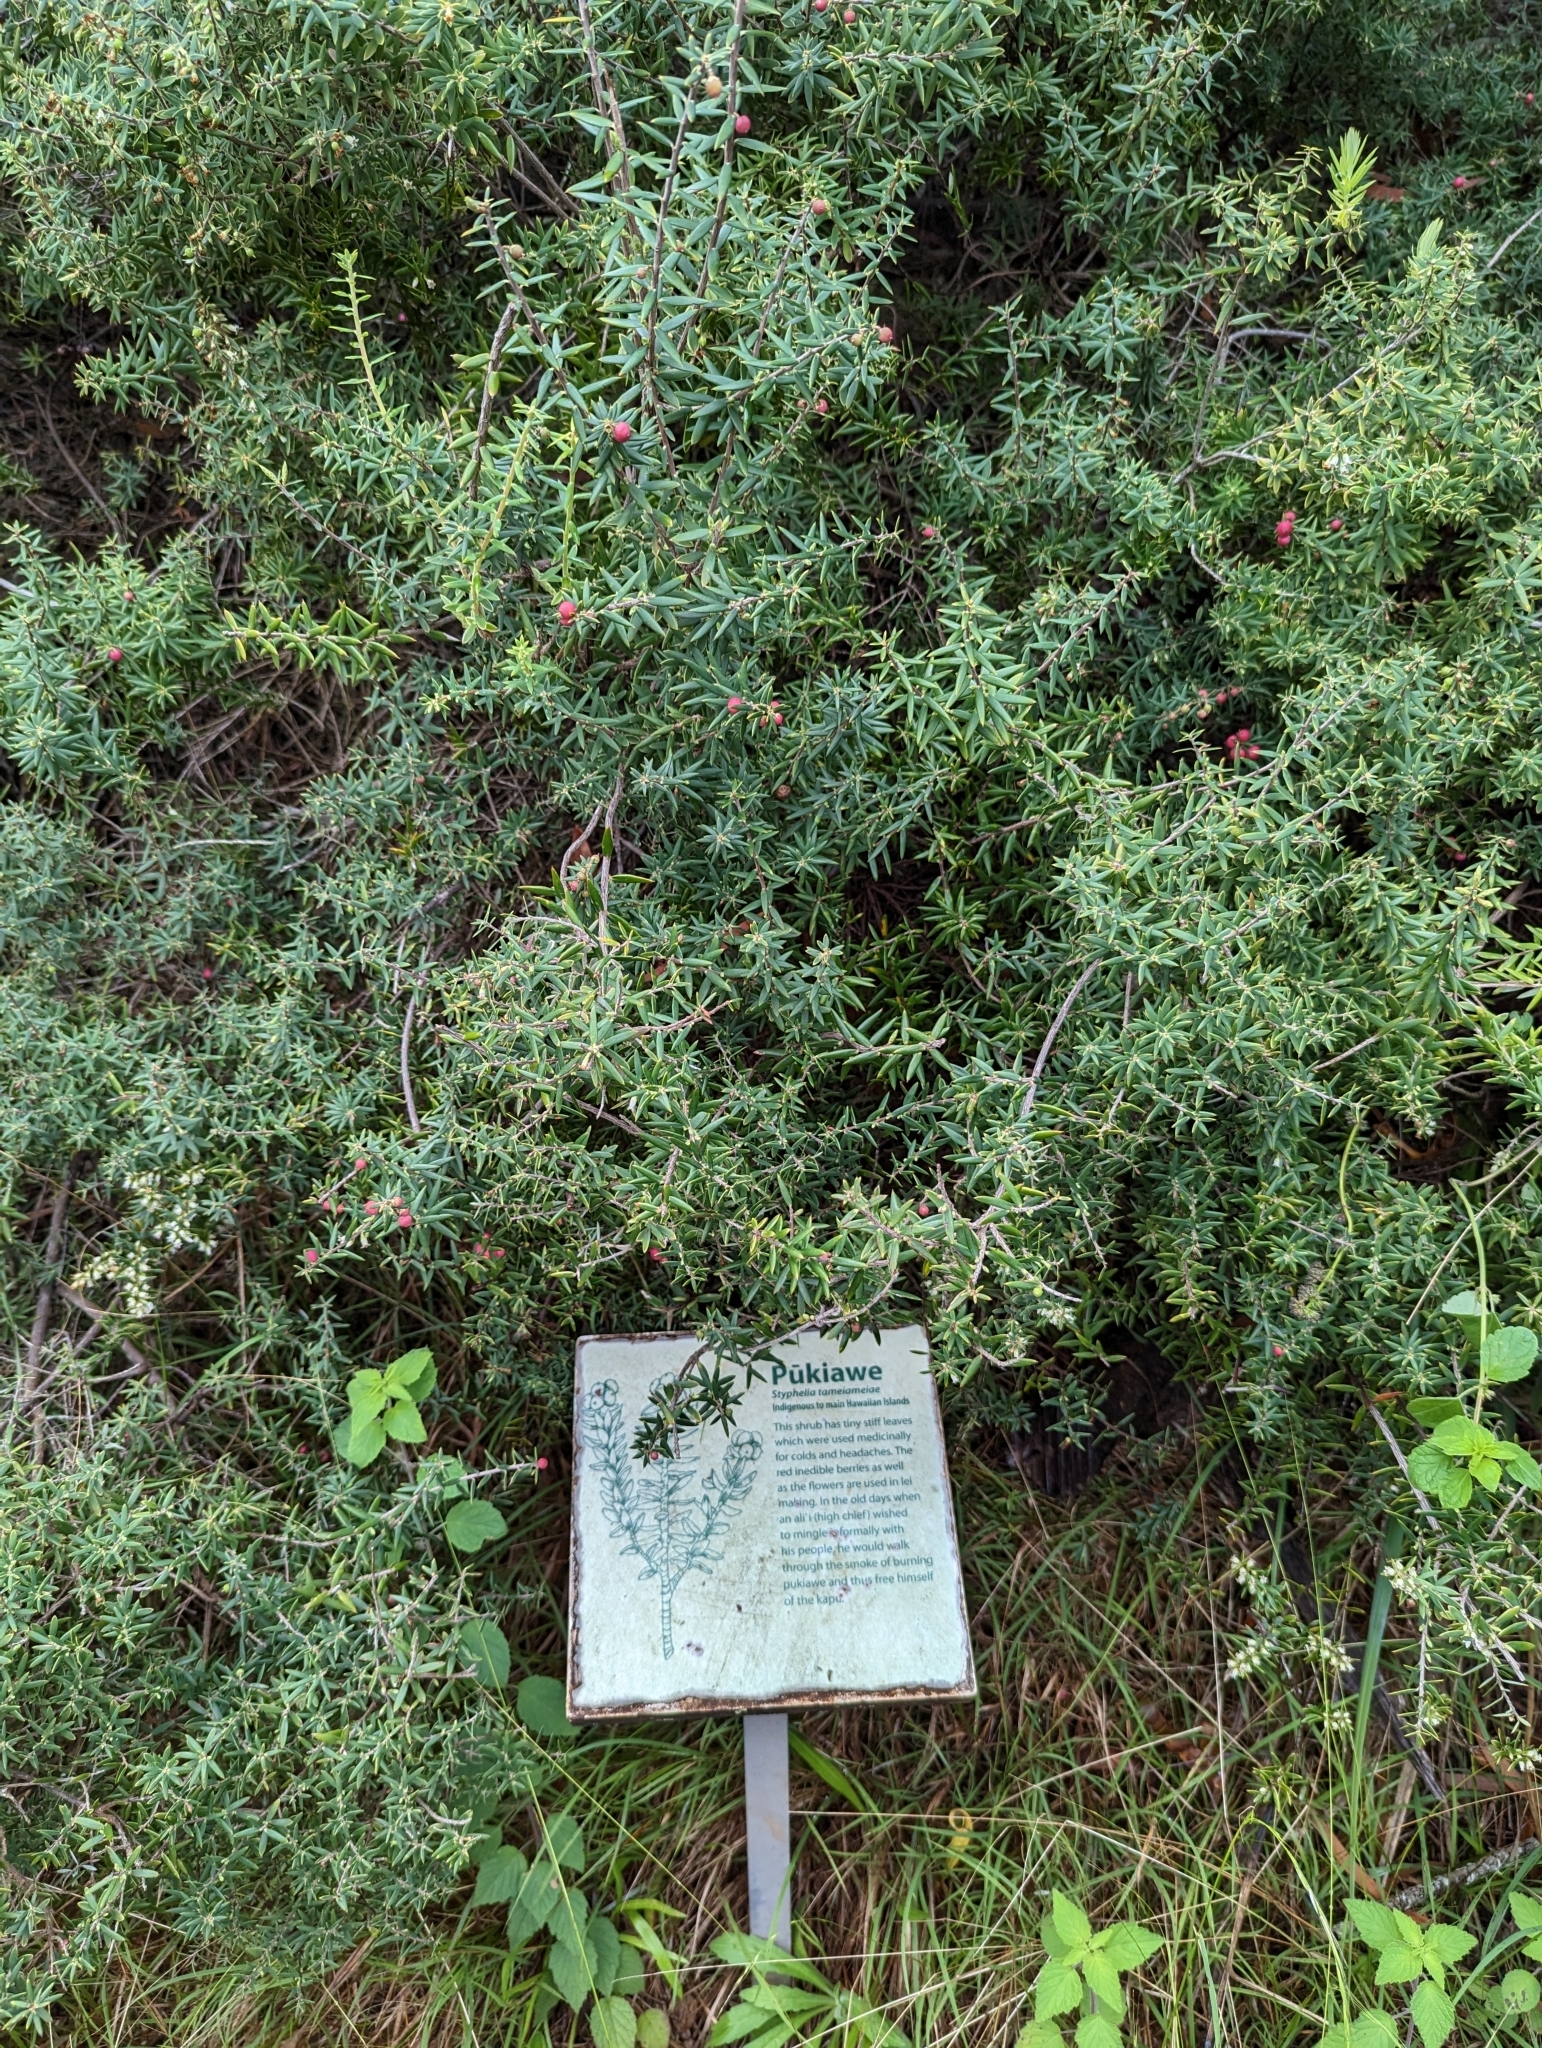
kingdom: Plantae
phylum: Tracheophyta
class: Magnoliopsida
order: Ericales
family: Ericaceae
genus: Leptecophylla
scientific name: Leptecophylla tameiameiae
